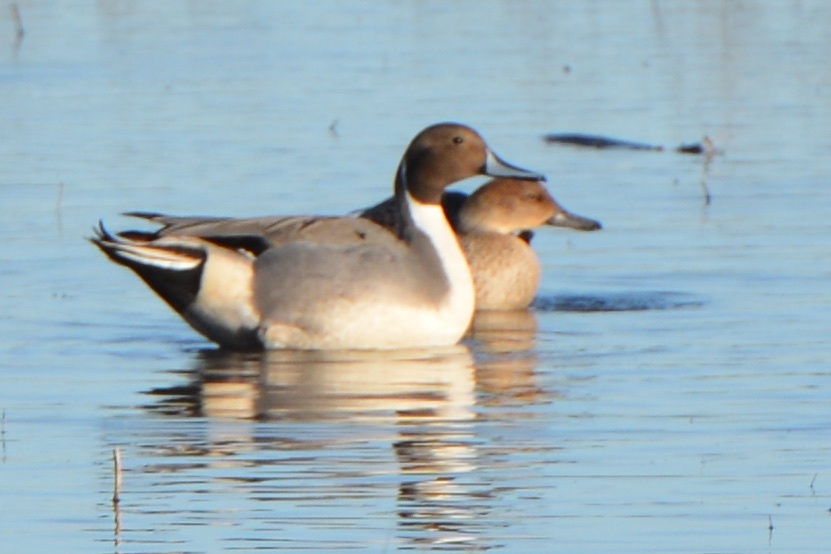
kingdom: Animalia
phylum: Chordata
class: Aves
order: Anseriformes
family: Anatidae
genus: Anas
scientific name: Anas acuta
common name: Northern pintail
